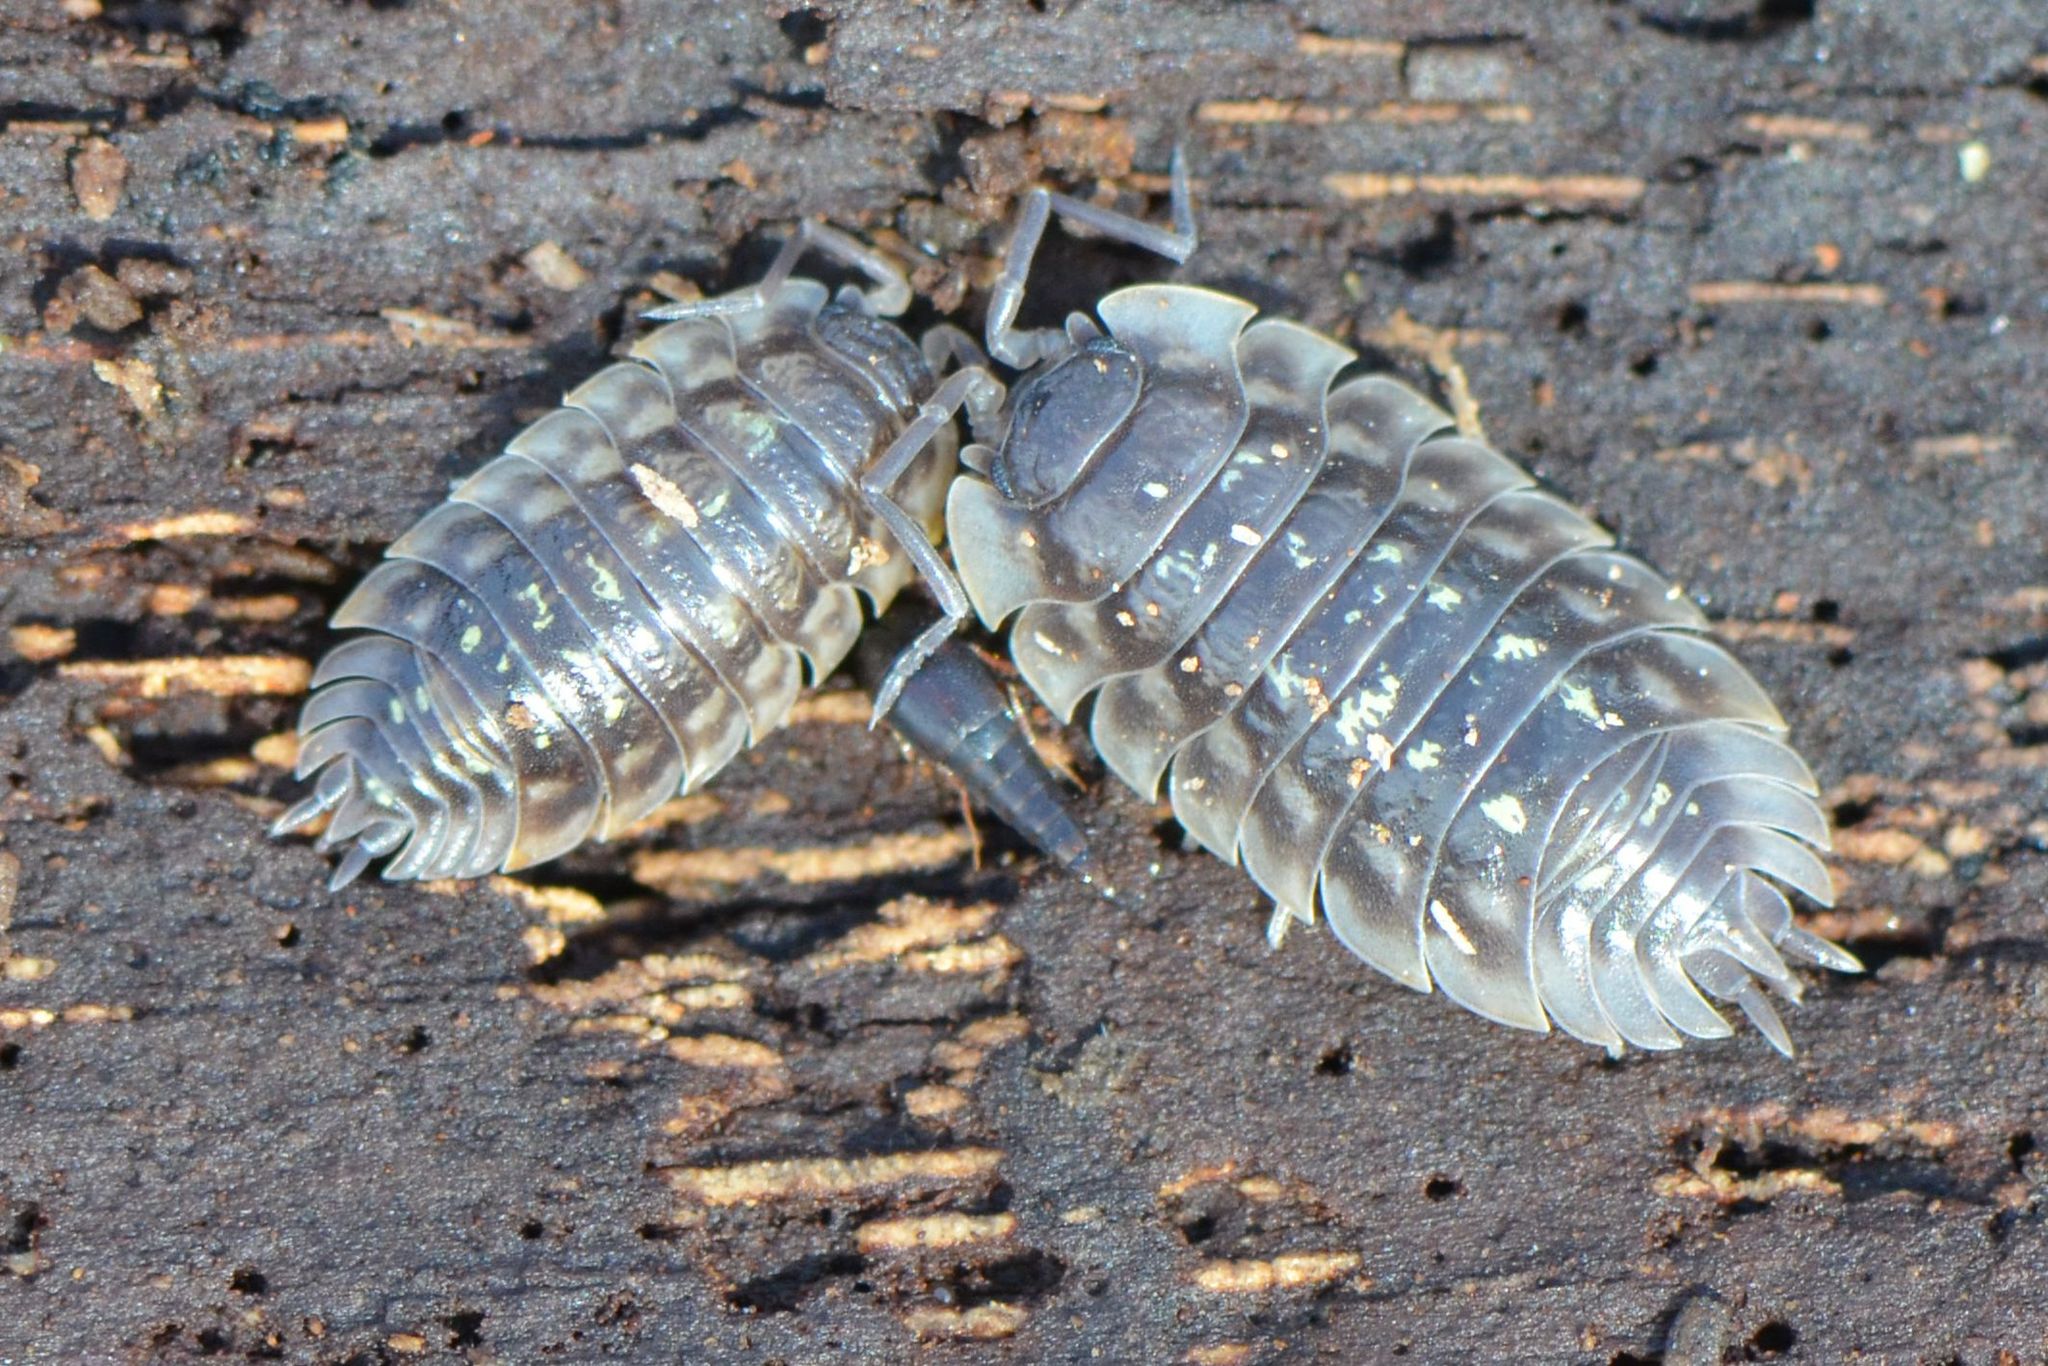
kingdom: Animalia
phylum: Arthropoda
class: Malacostraca
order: Isopoda
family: Oniscidae
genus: Oniscus
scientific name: Oniscus asellus
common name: Common shiny woodlouse
